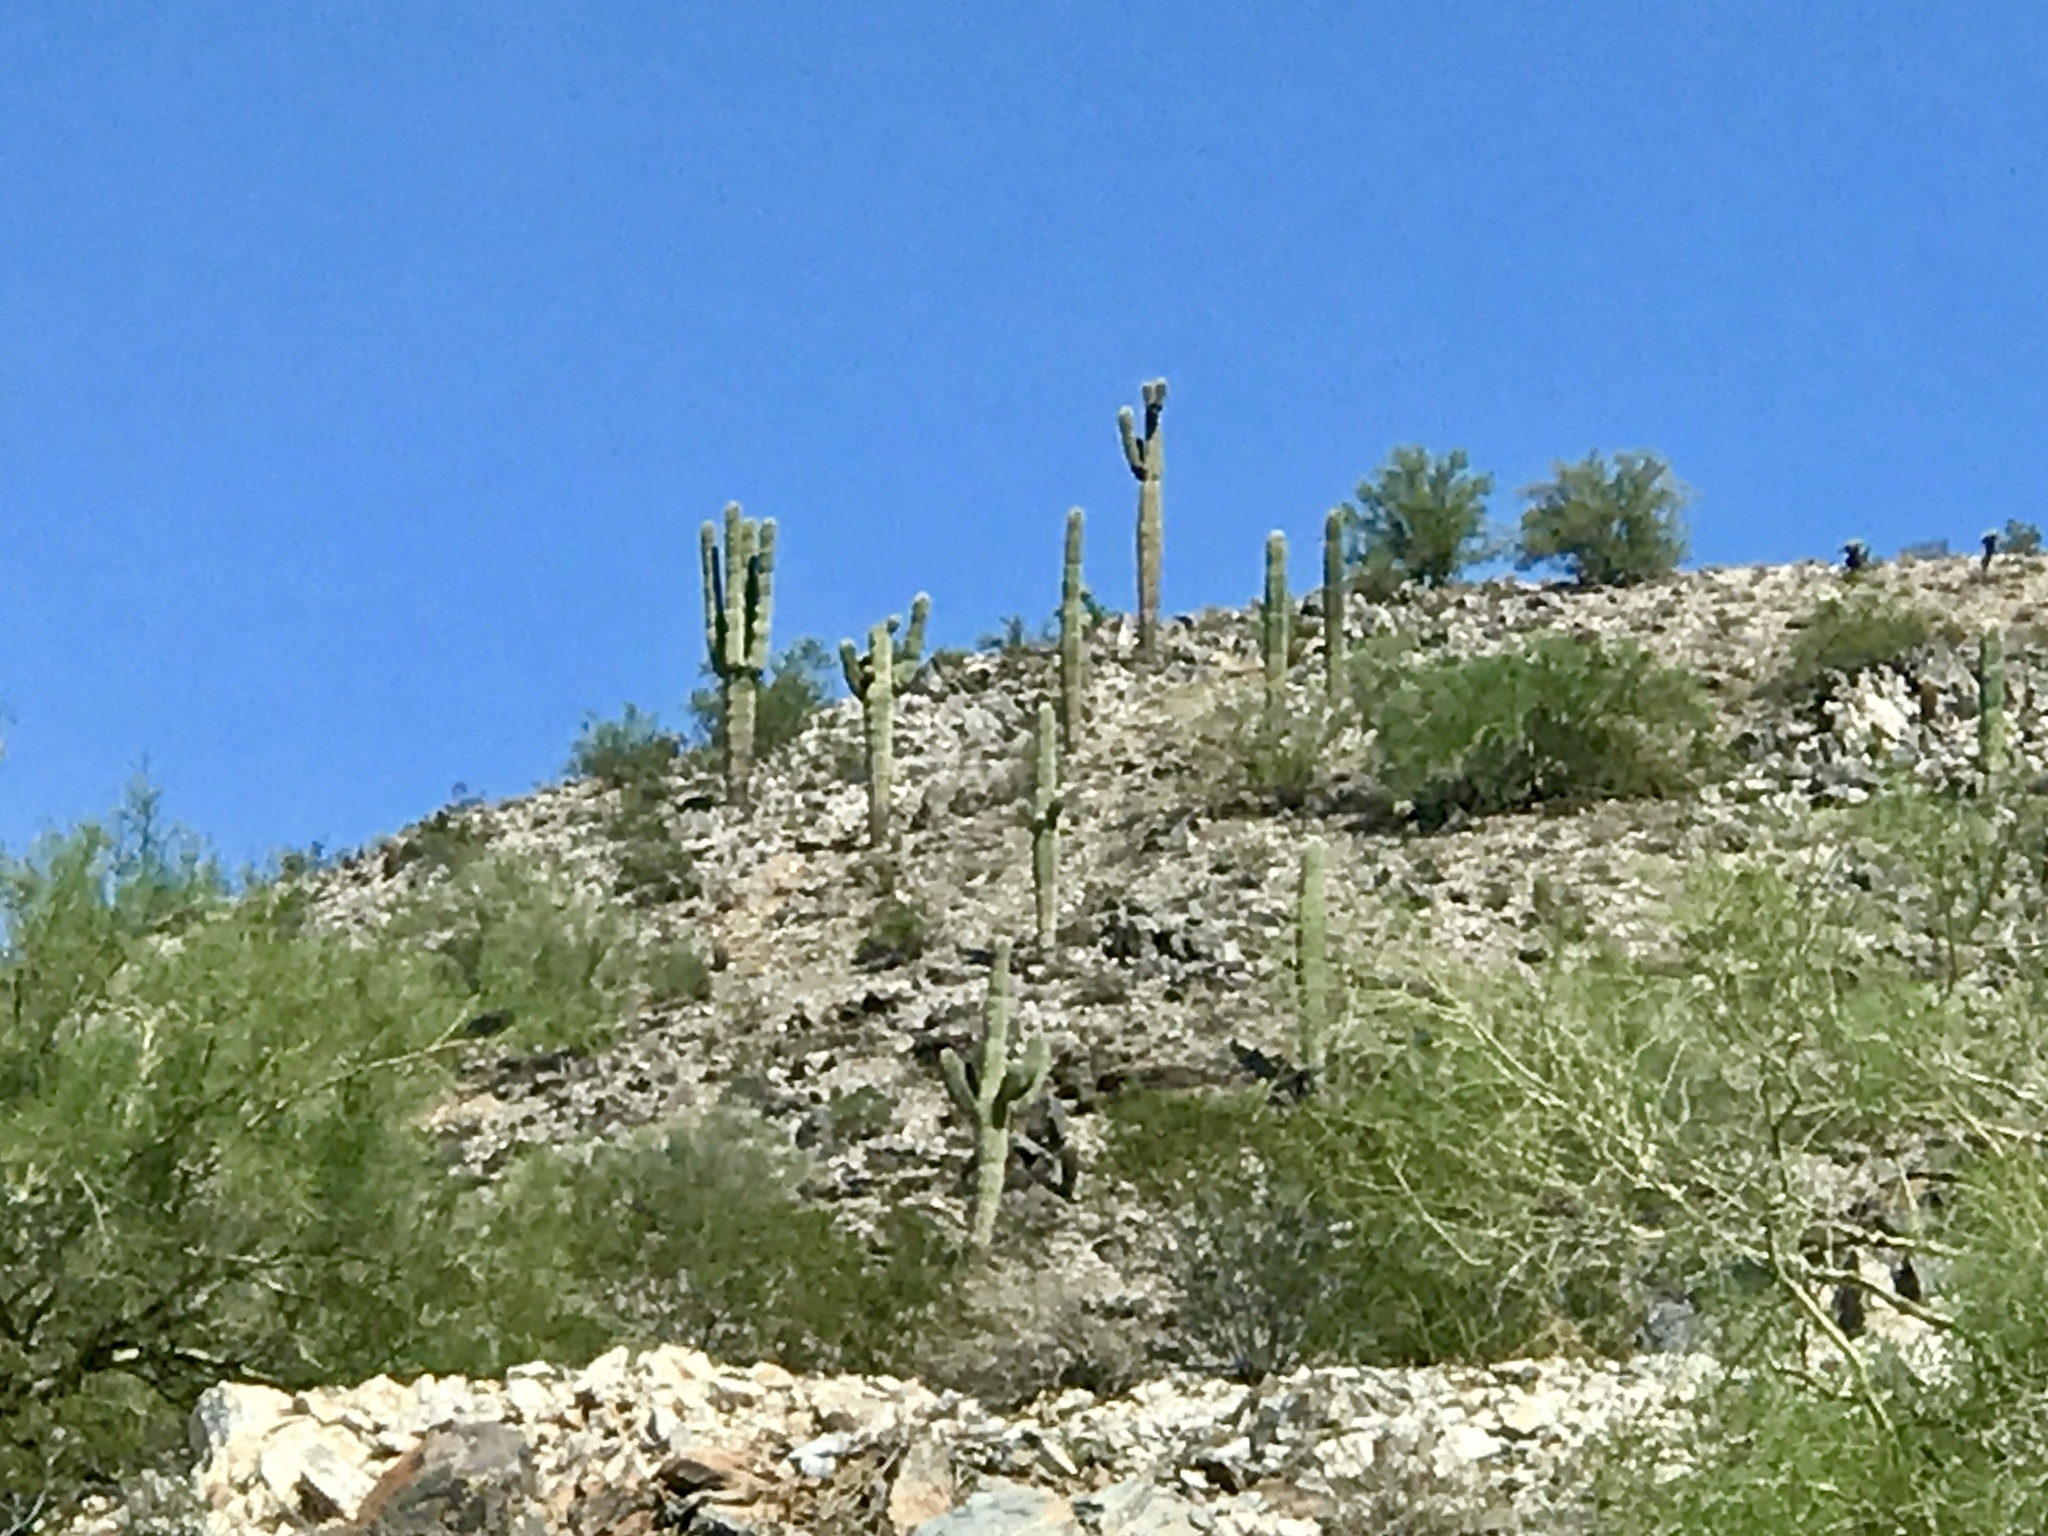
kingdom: Plantae
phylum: Tracheophyta
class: Magnoliopsida
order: Caryophyllales
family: Cactaceae
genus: Carnegiea
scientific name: Carnegiea gigantea
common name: Saguaro
